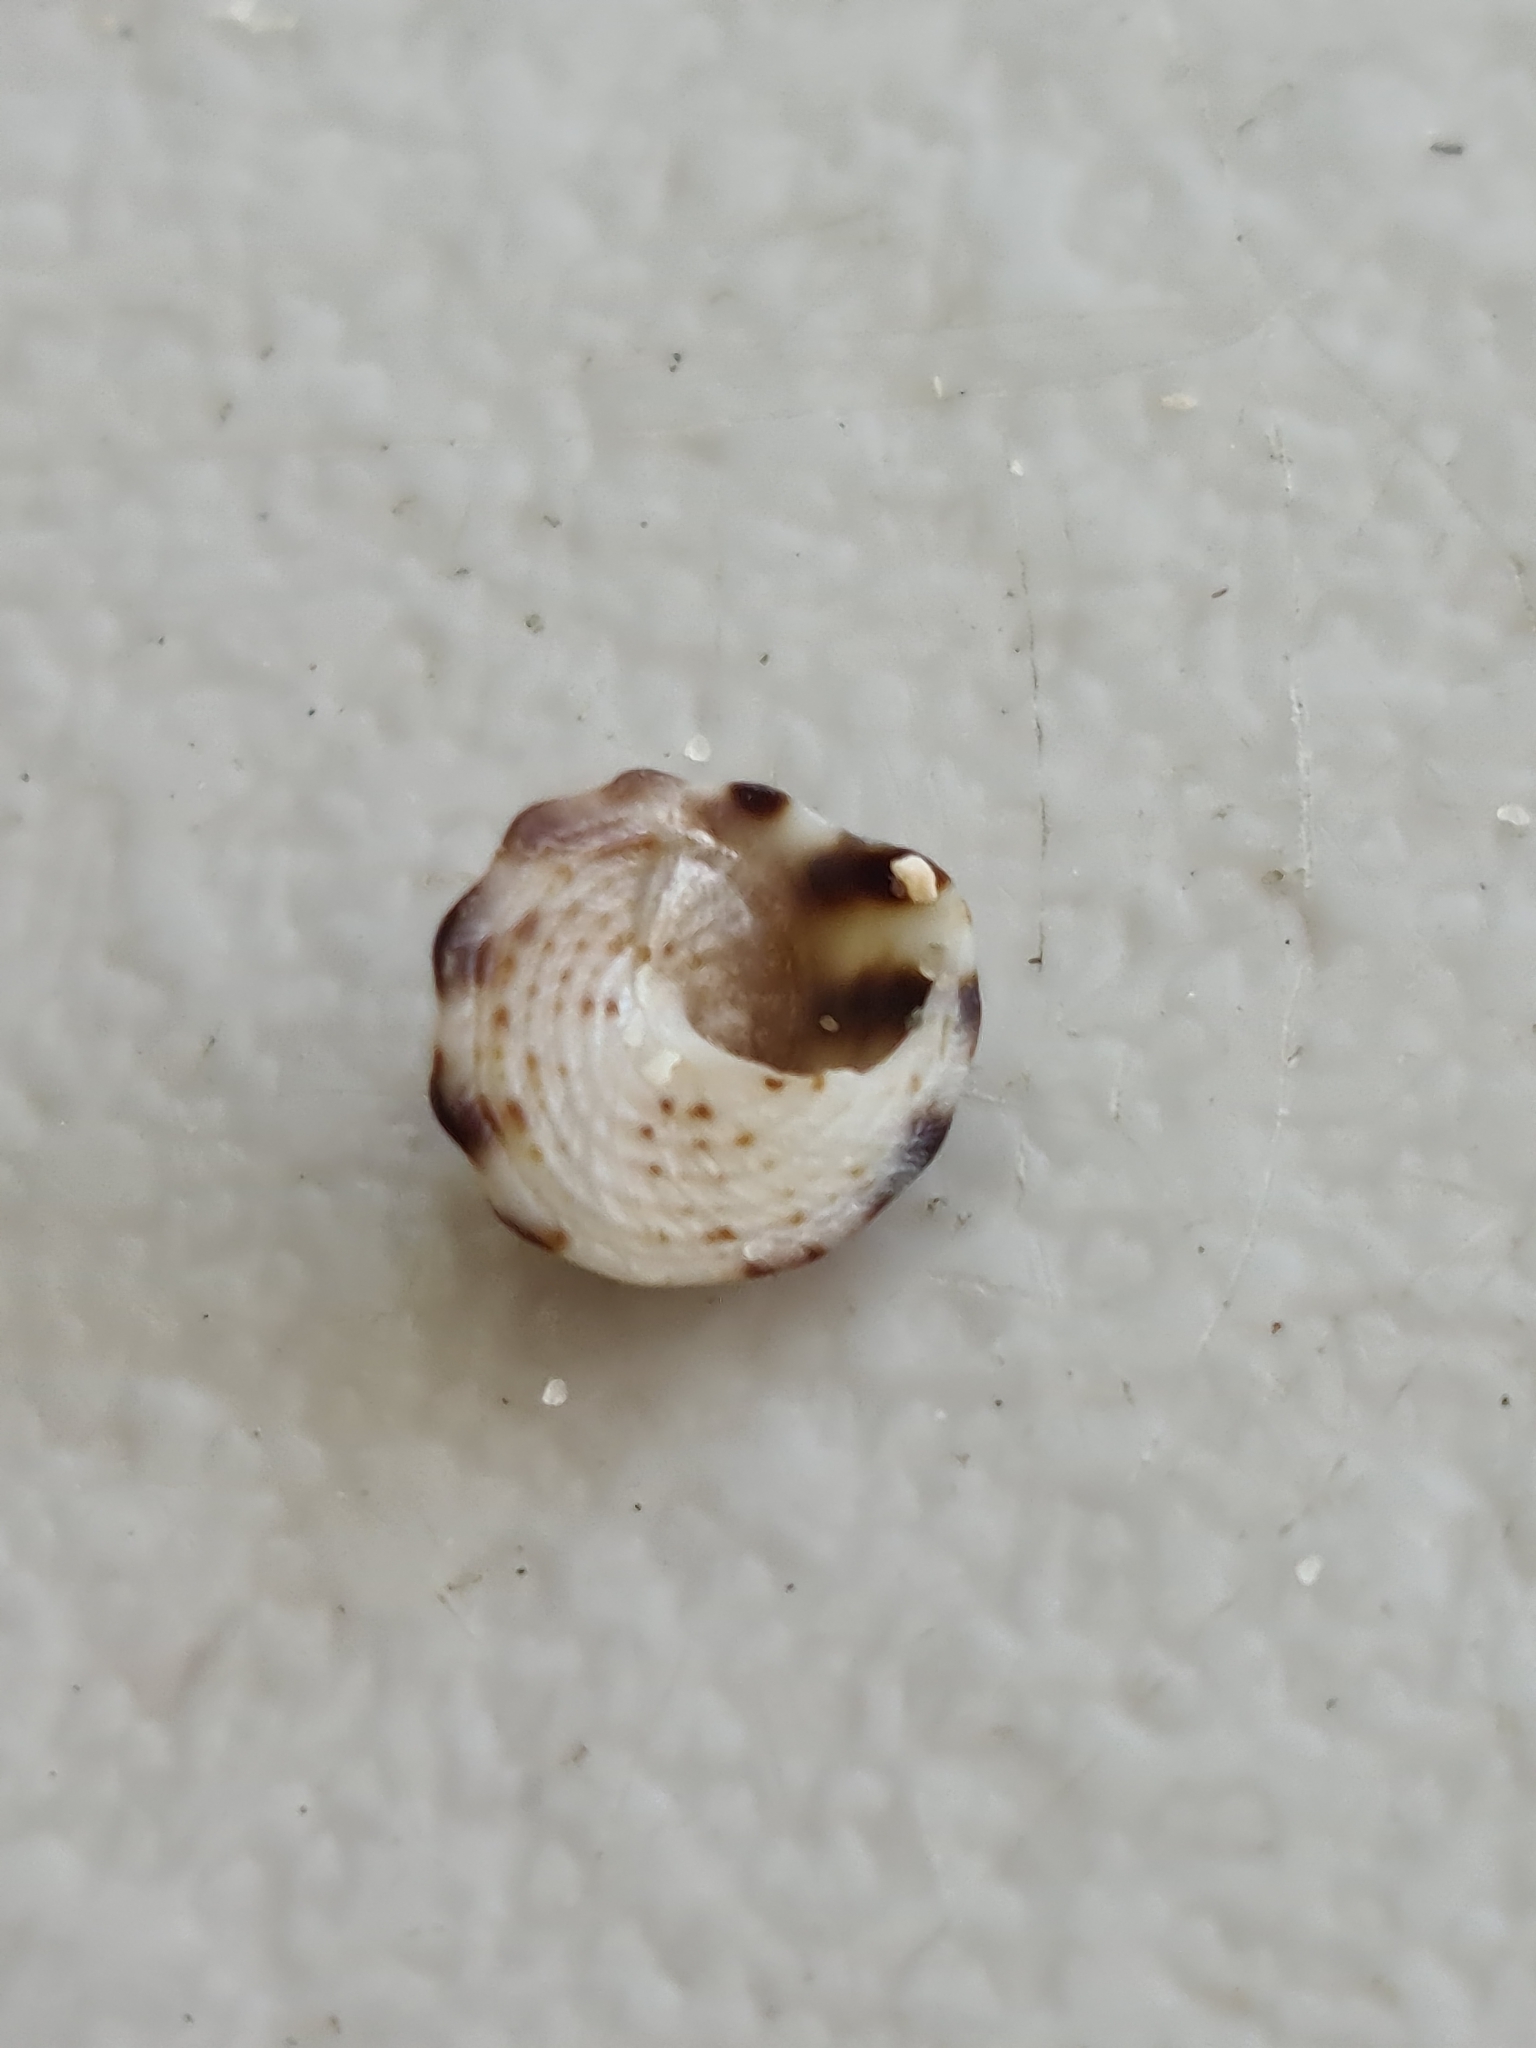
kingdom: Animalia
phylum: Mollusca
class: Gastropoda
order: Littorinimorpha
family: Littorinidae
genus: Bembicium
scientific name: Bembicium nanum
